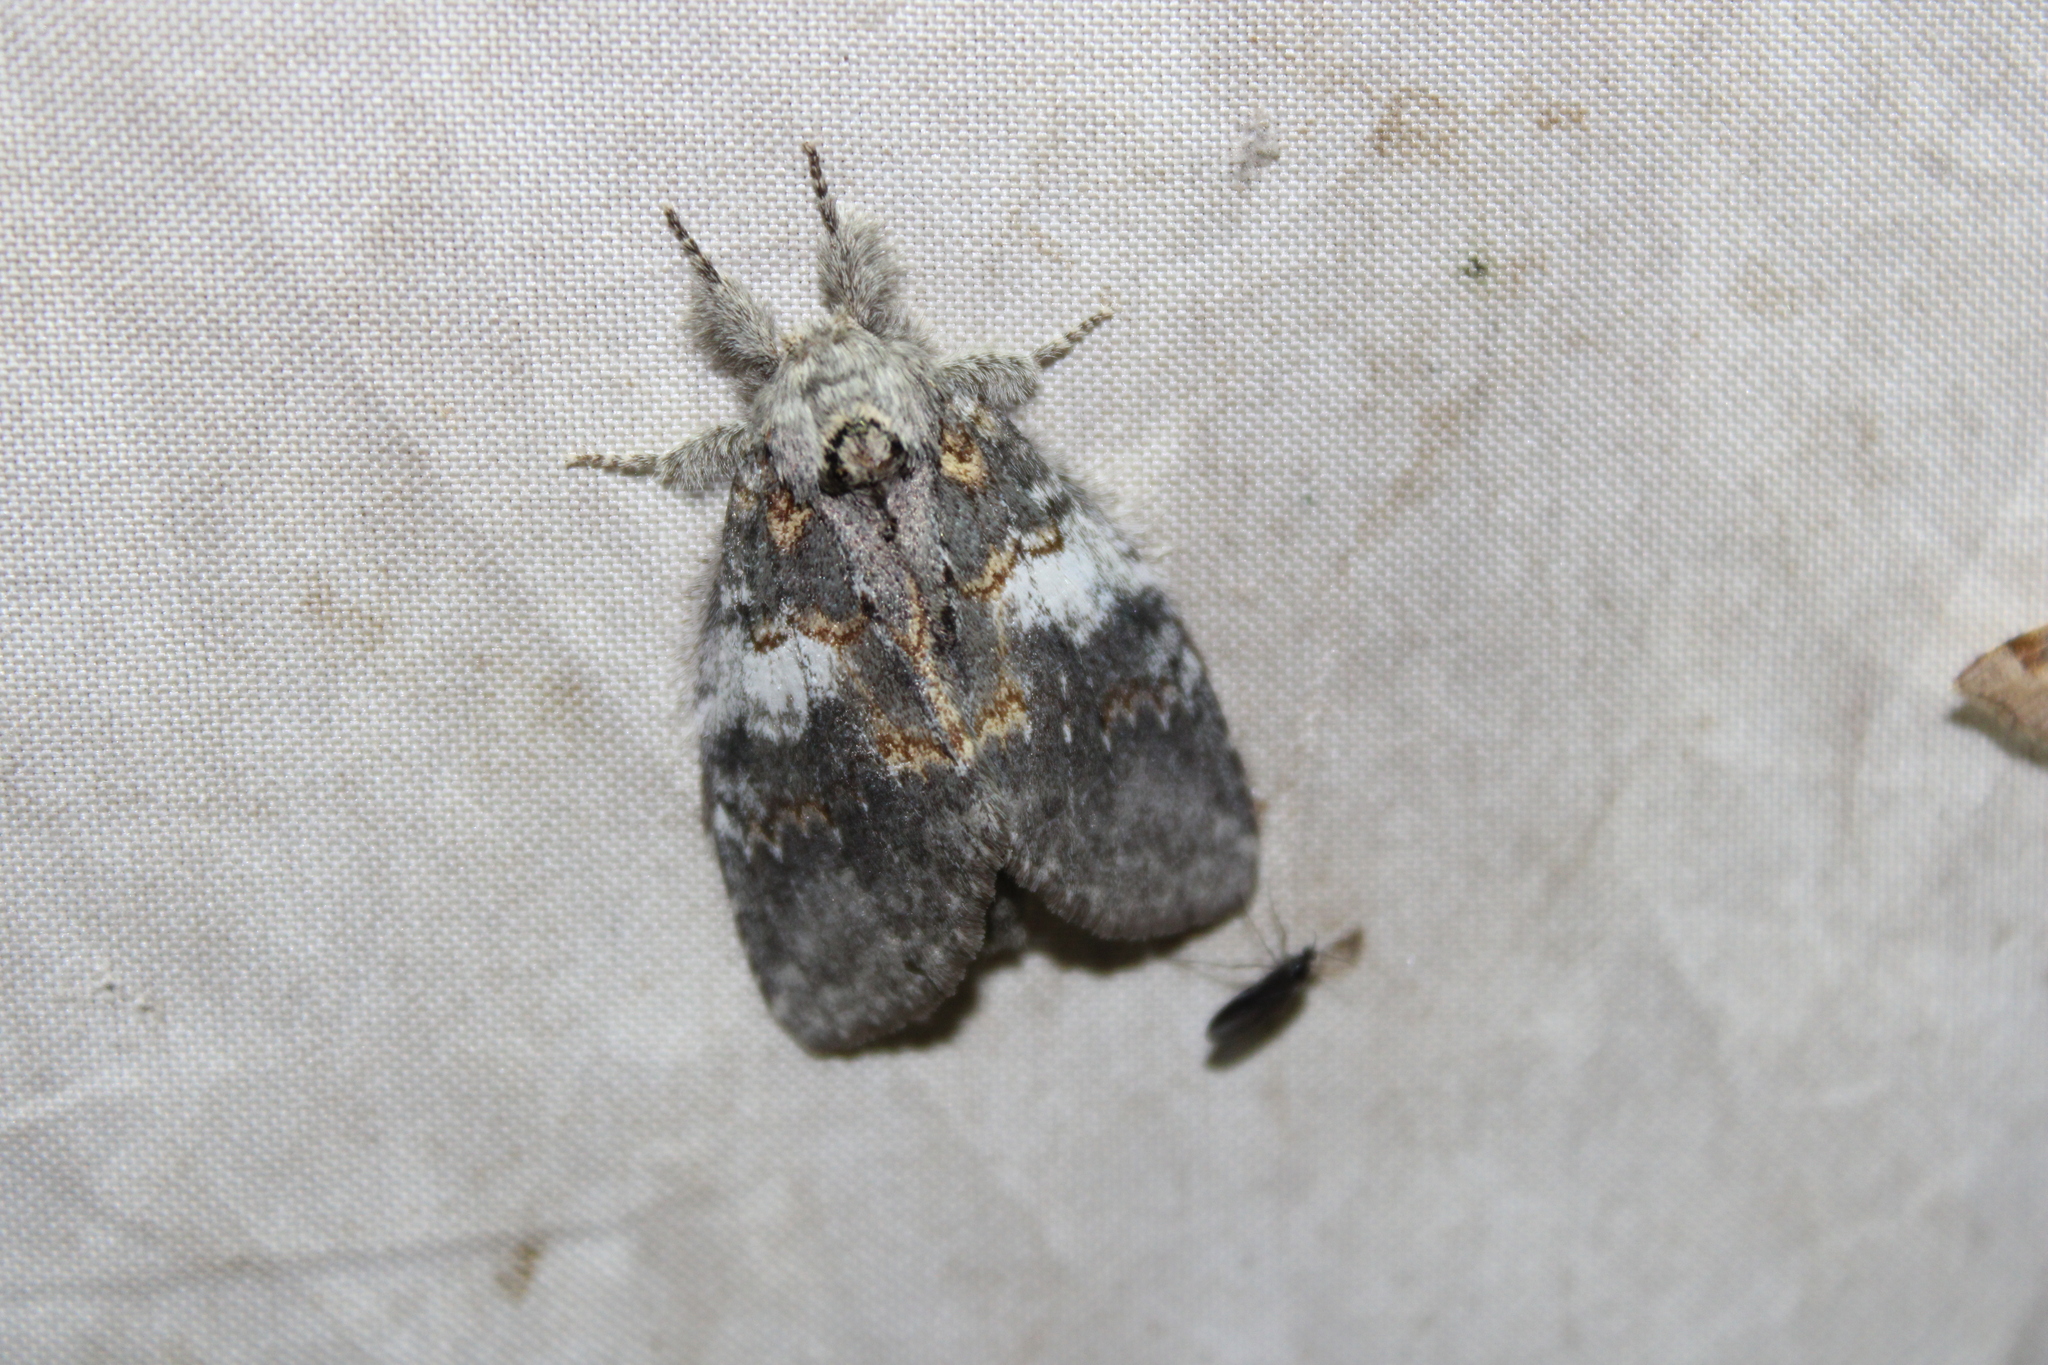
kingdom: Animalia
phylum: Arthropoda
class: Insecta
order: Lepidoptera
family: Notodontidae
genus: Peridea
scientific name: Peridea angulosa
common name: Angulose prominent
